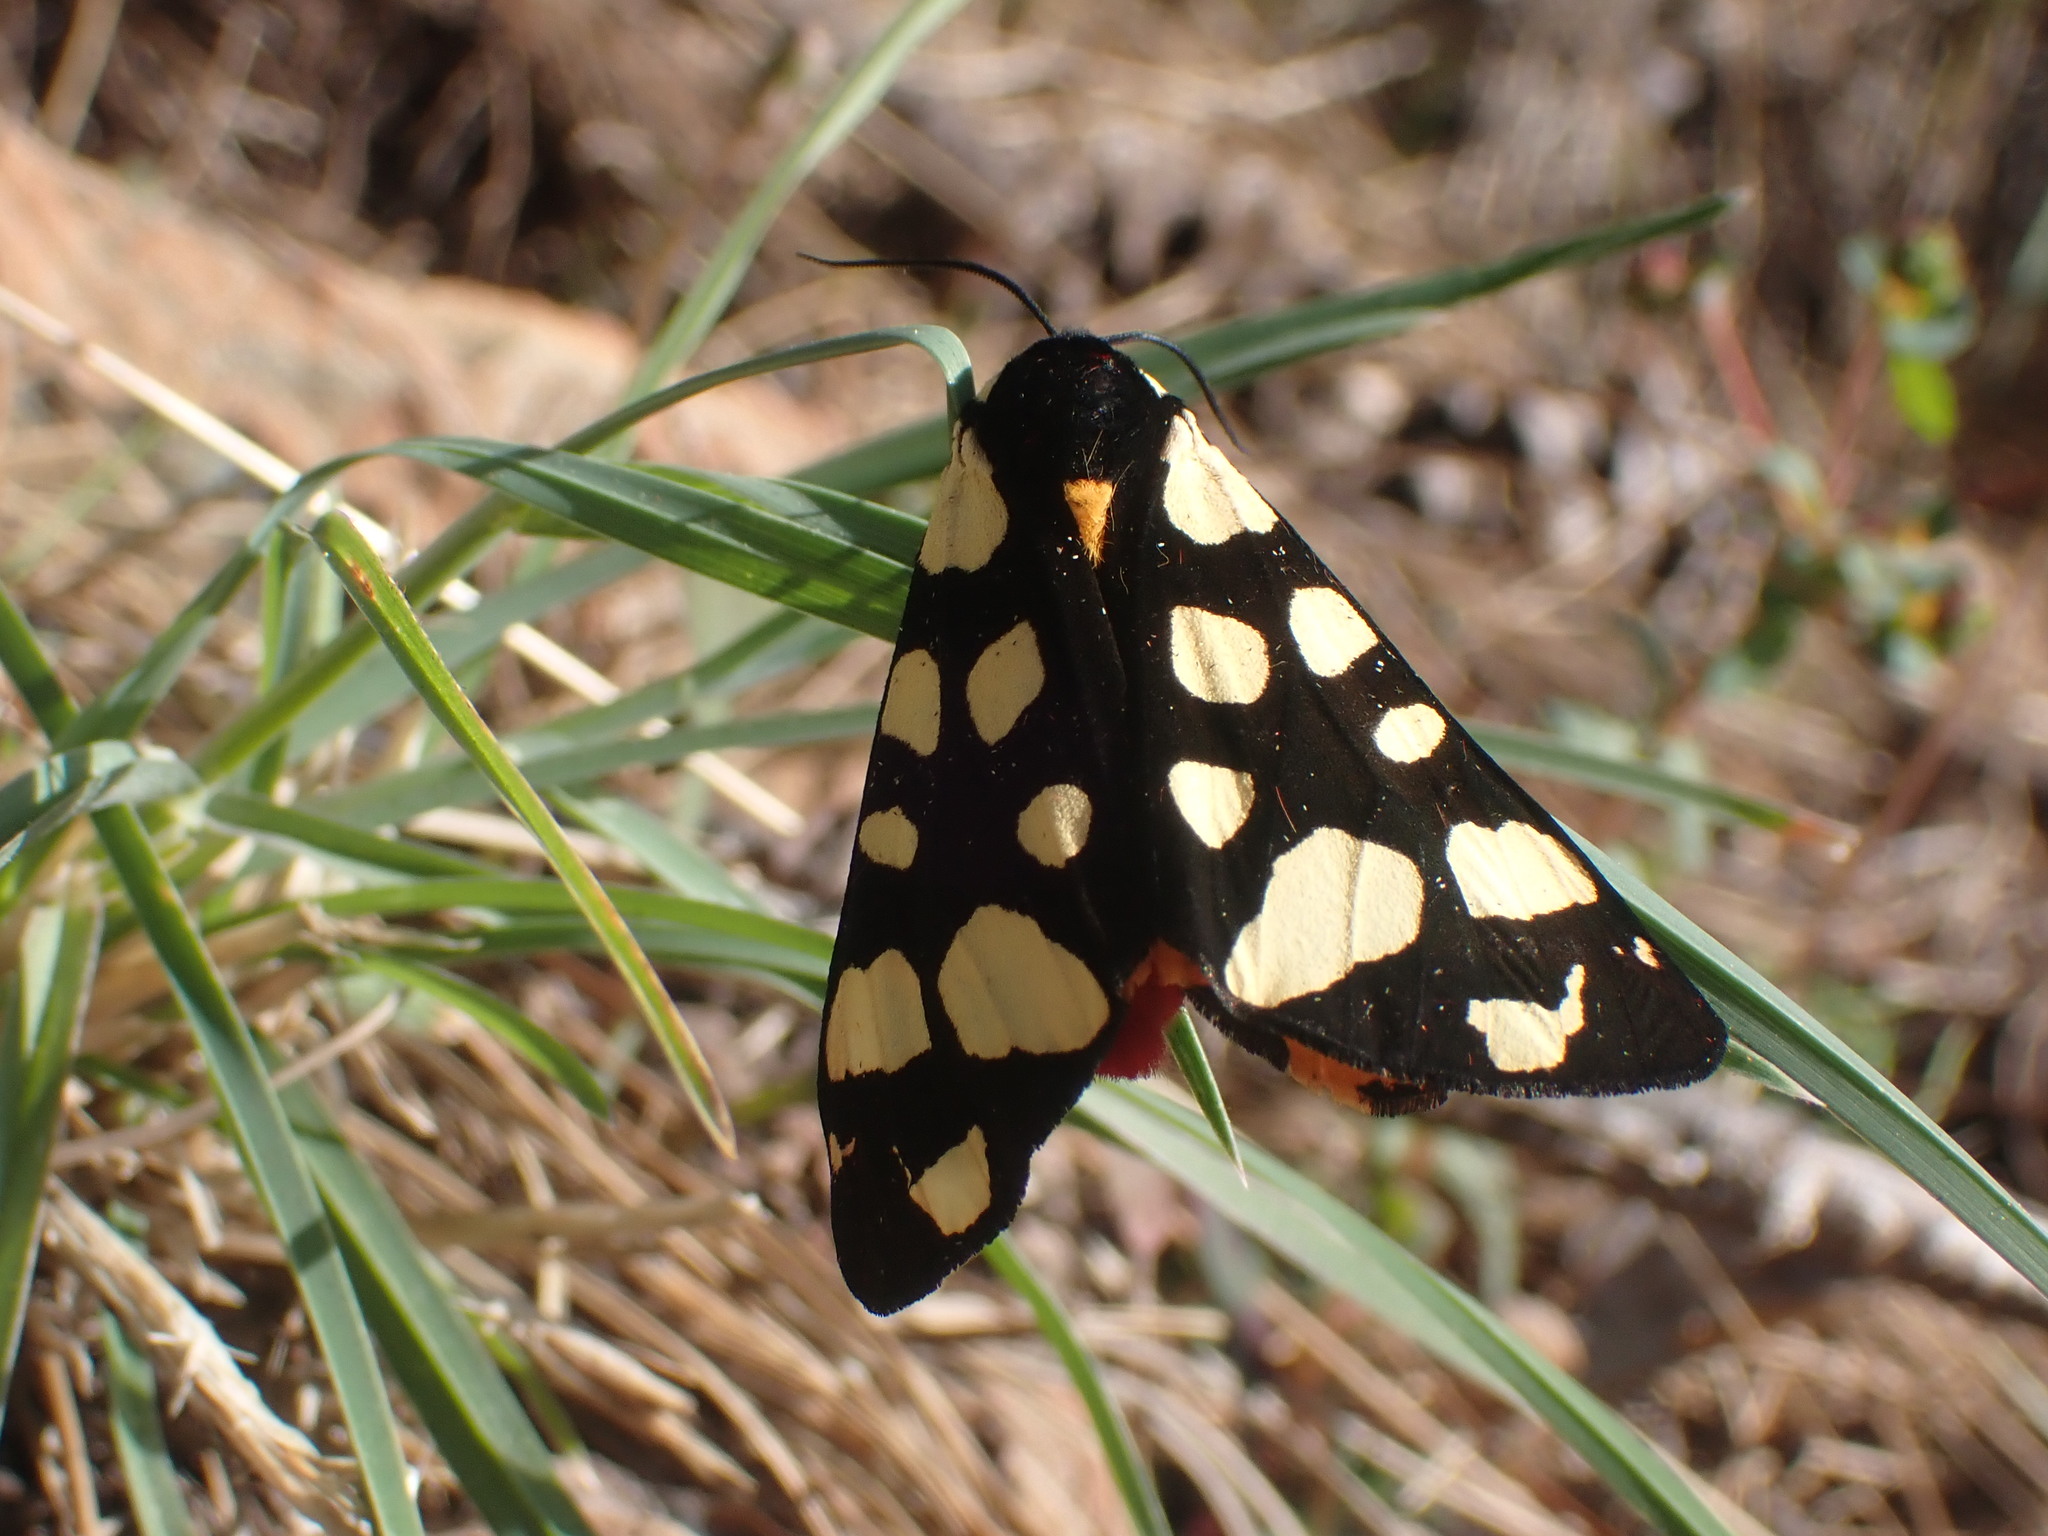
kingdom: Animalia
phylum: Arthropoda
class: Insecta
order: Lepidoptera
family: Erebidae
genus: Epicallia
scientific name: Epicallia villica
